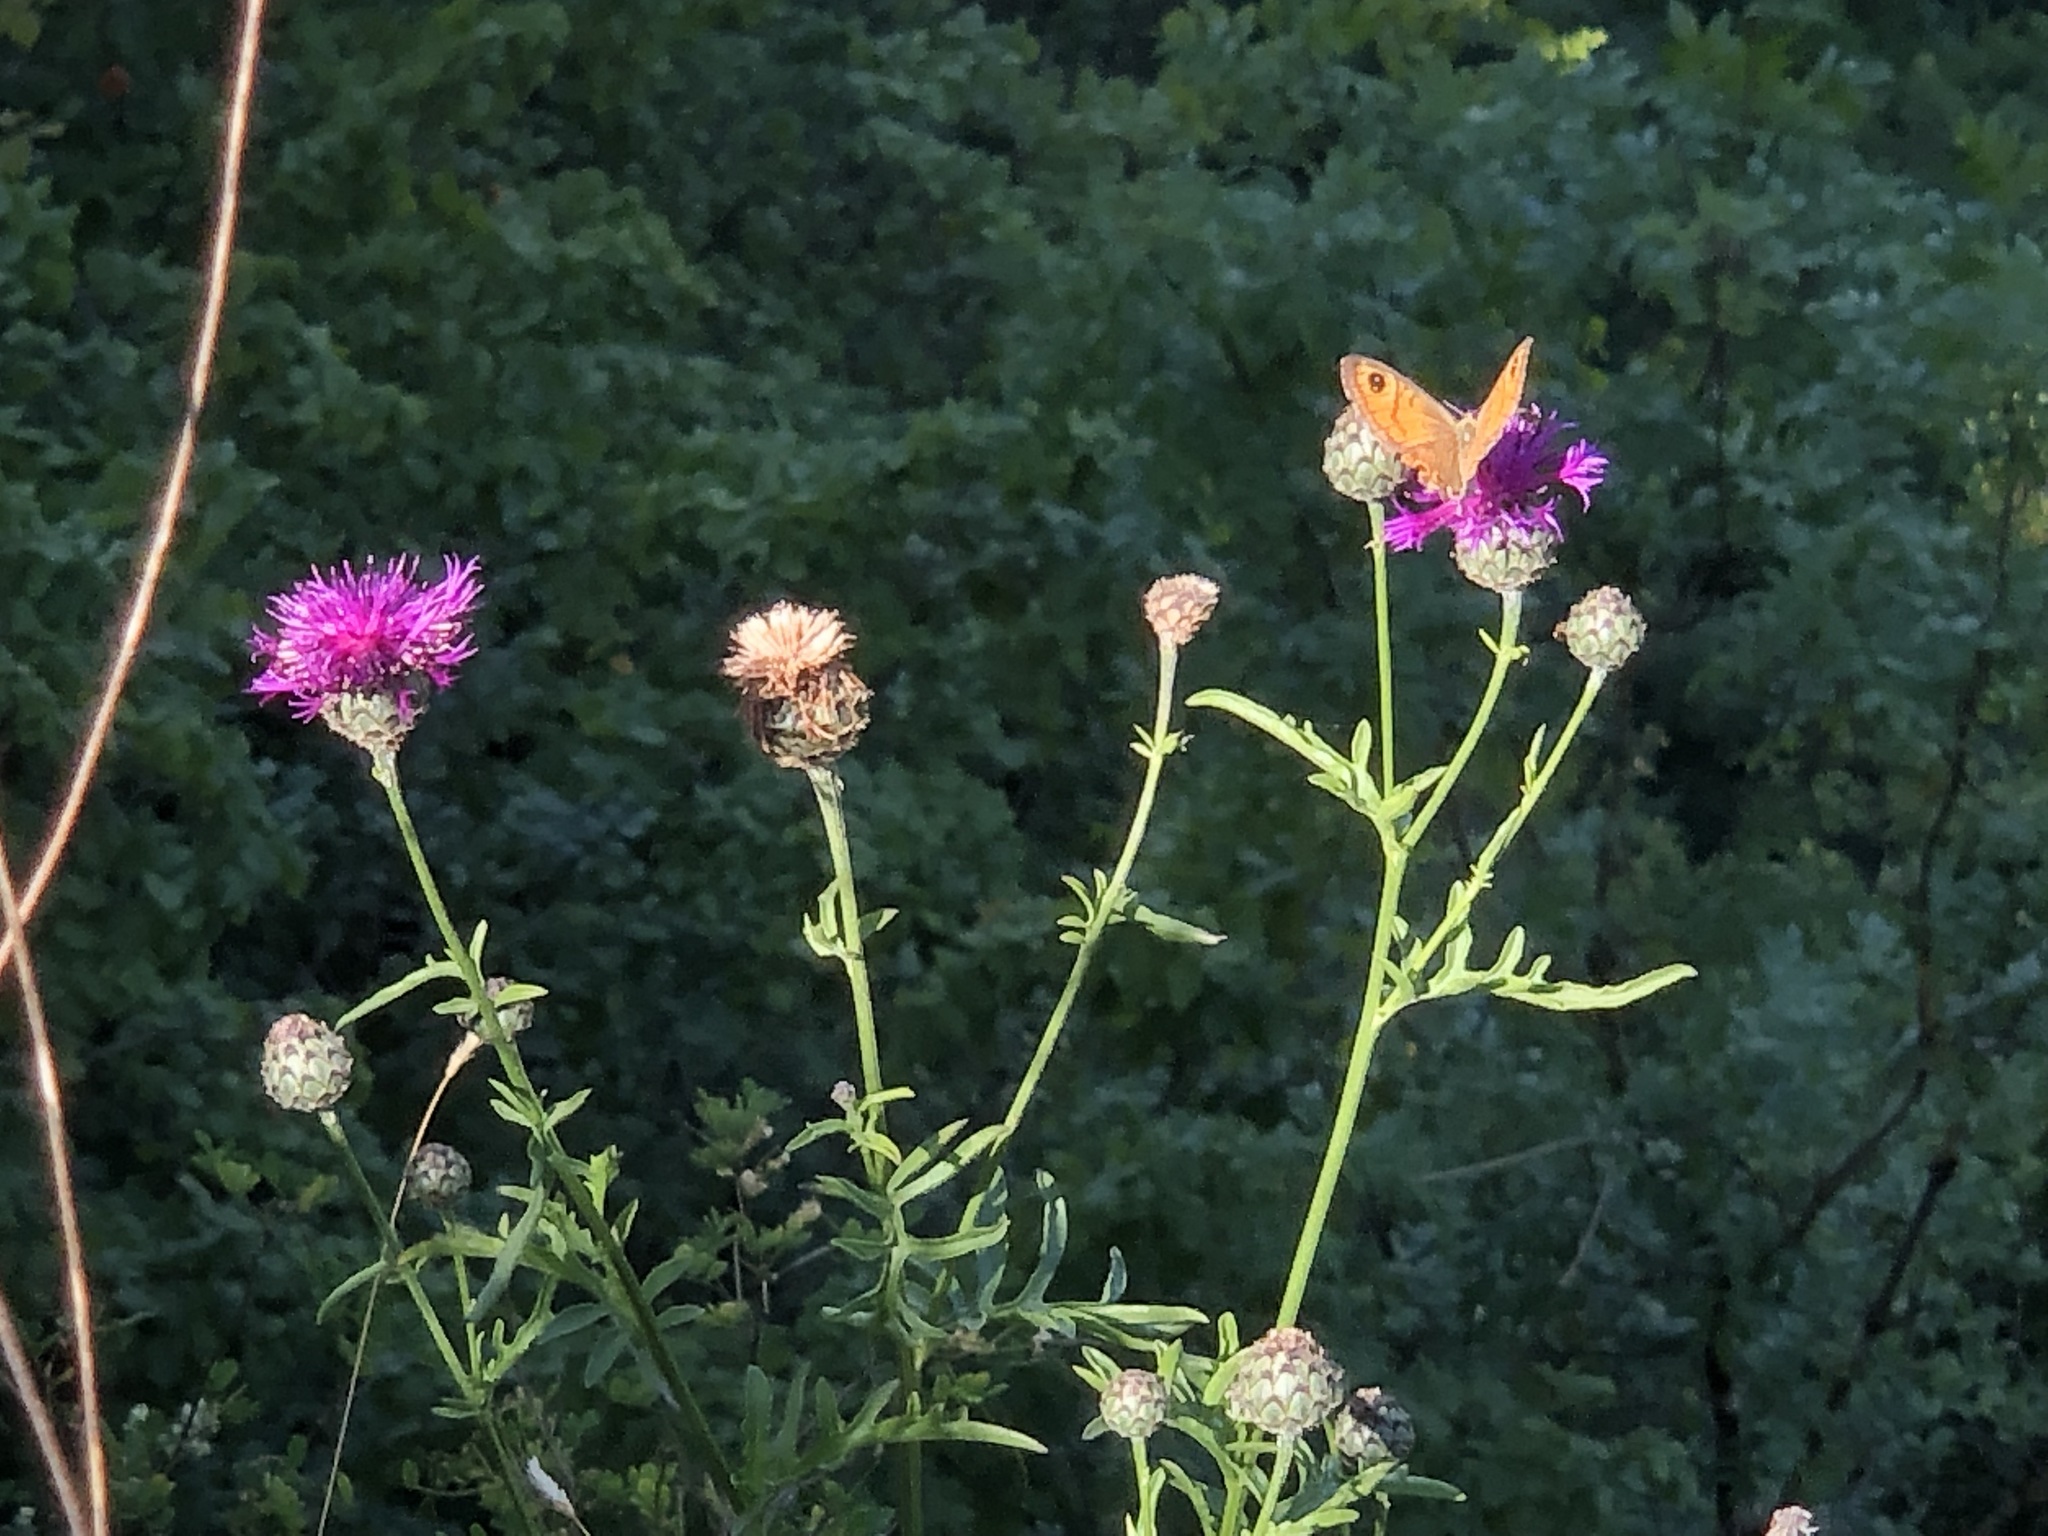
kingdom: Animalia
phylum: Arthropoda
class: Insecta
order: Lepidoptera
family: Nymphalidae
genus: Pararge
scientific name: Pararge Lasiommata maera
